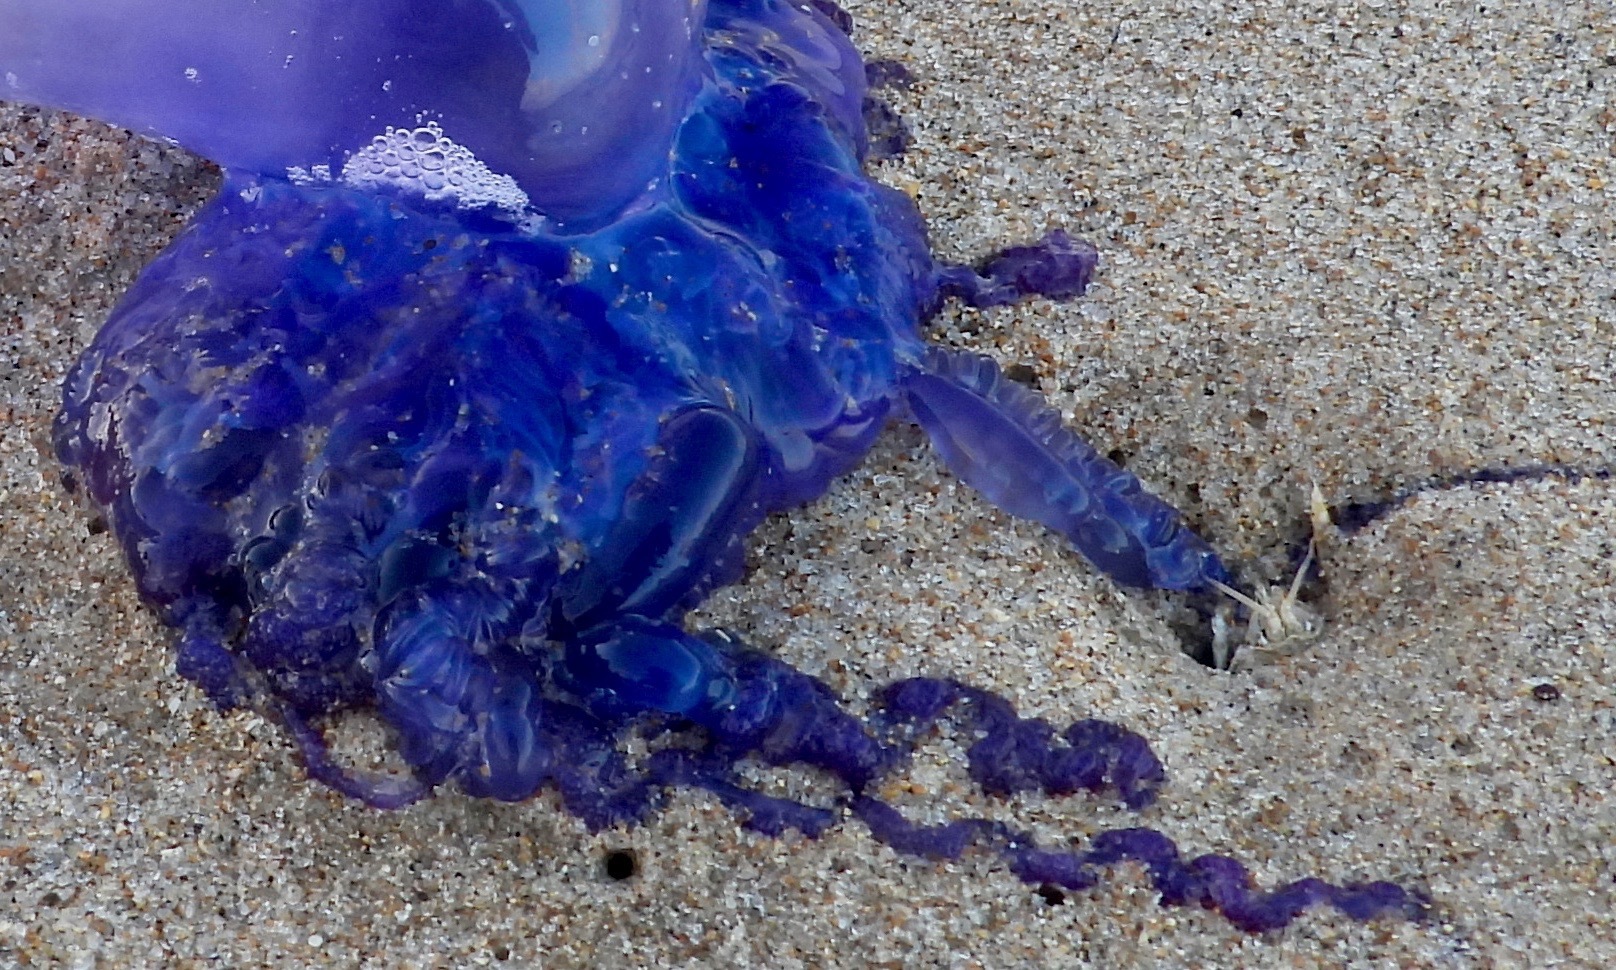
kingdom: Animalia
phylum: Arthropoda
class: Malacostraca
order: Decapoda
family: Hippidae
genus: Hippa
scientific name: Hippa testudinaria
